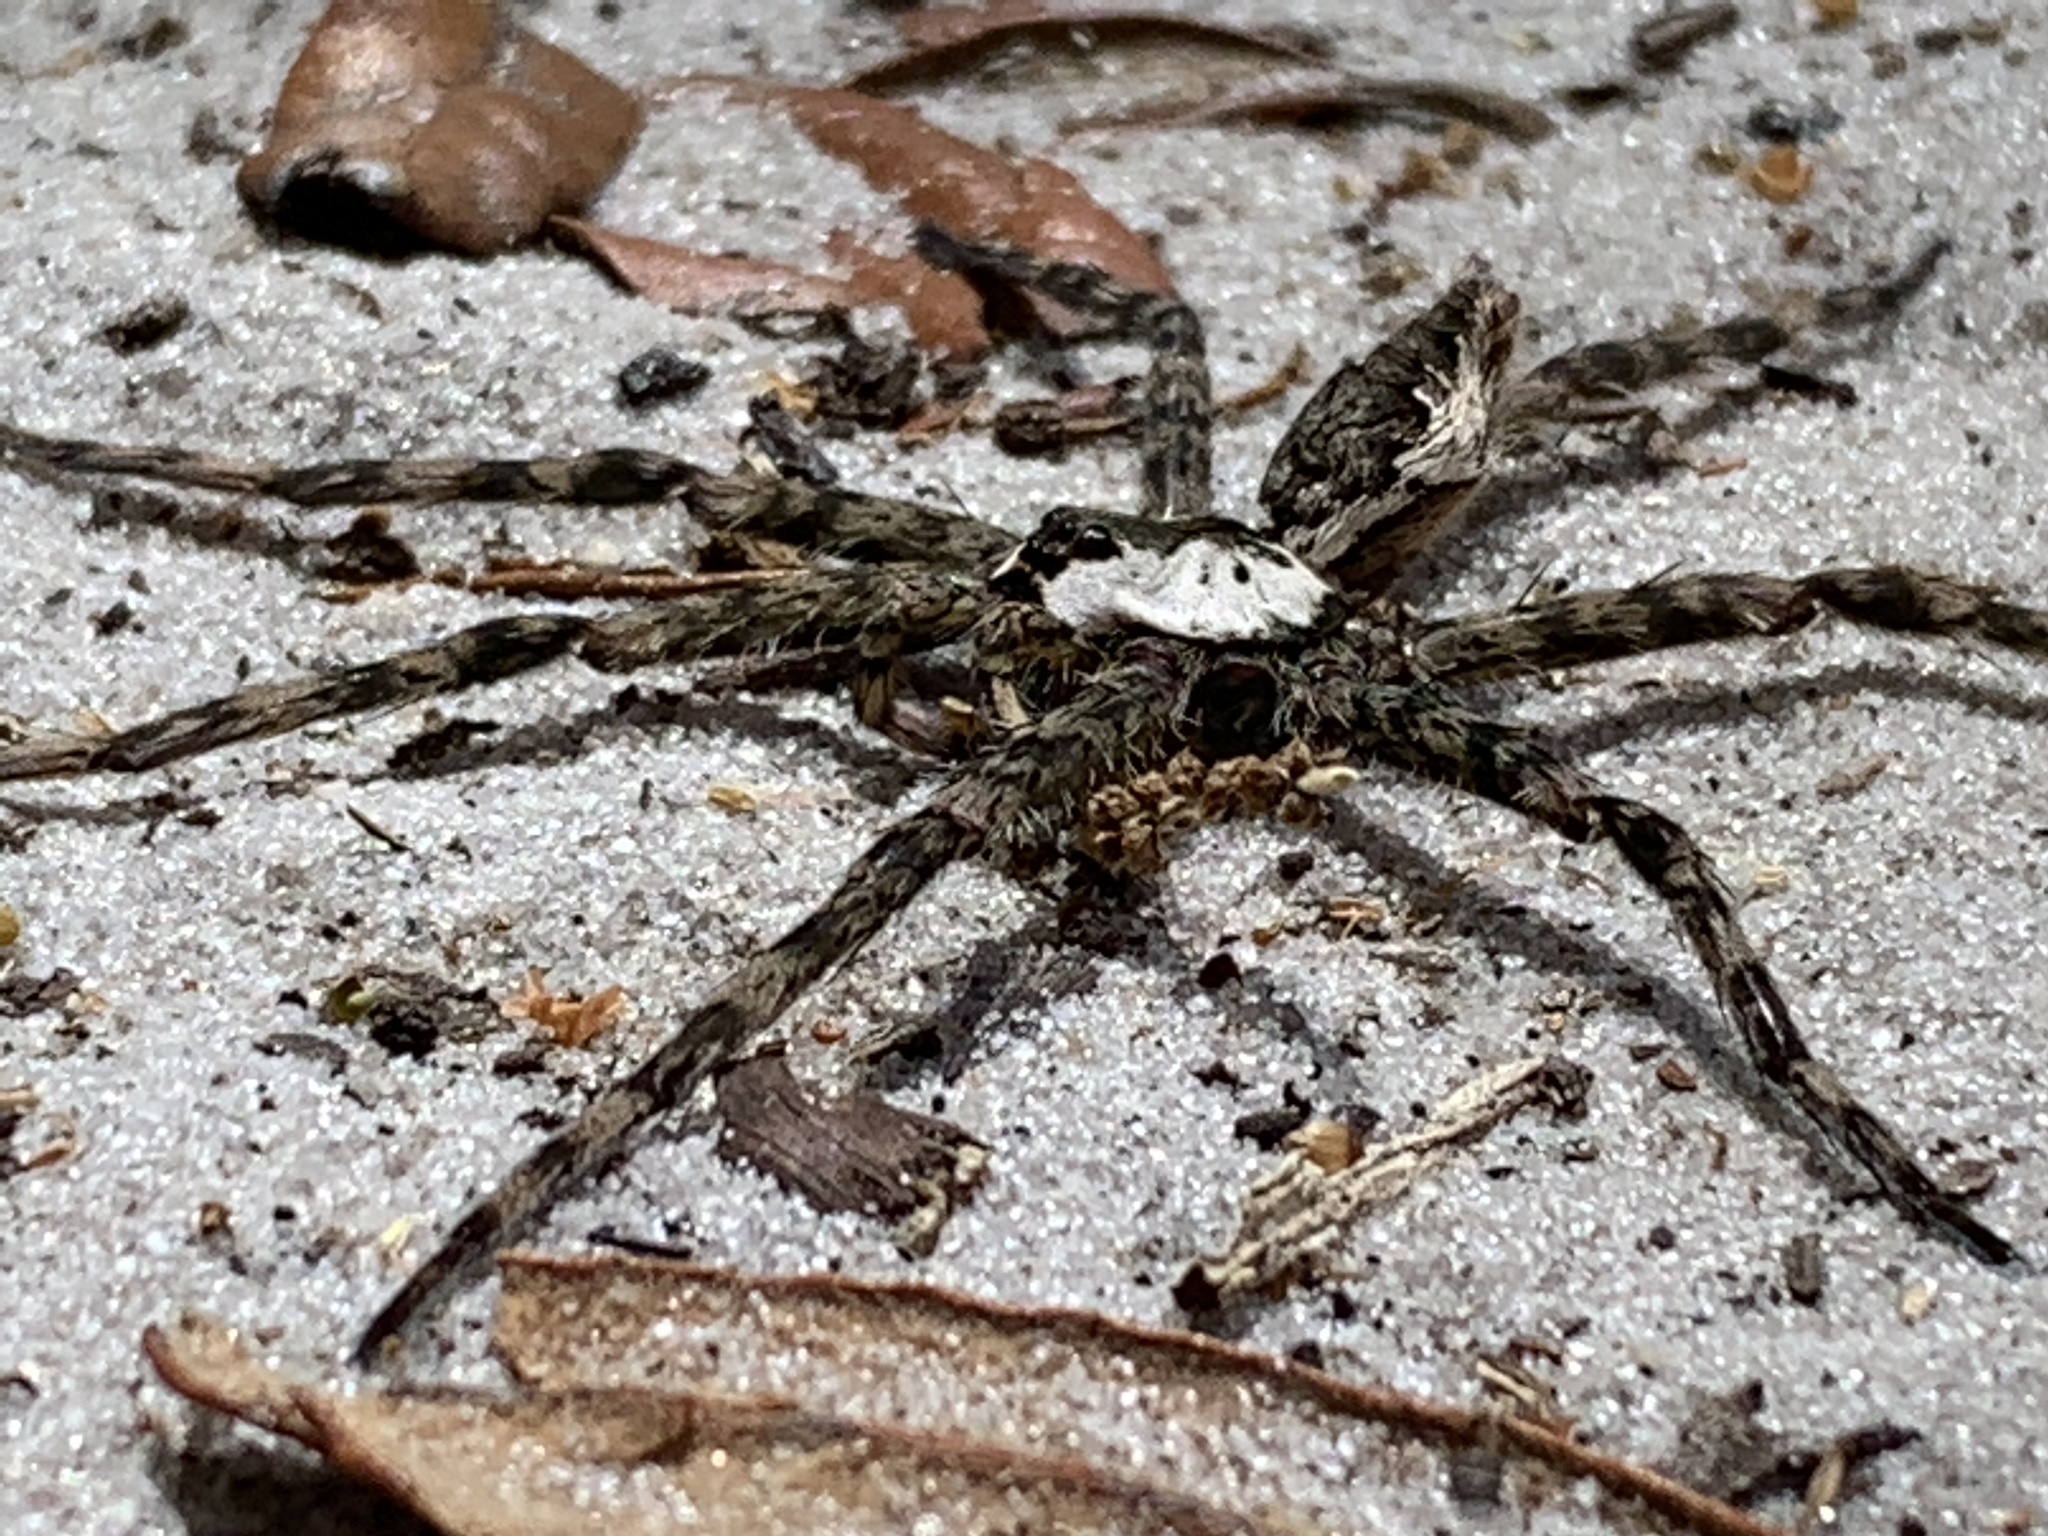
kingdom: Animalia
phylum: Arthropoda
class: Arachnida
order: Araneae
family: Pisauridae
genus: Dolomedes
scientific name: Dolomedes albineus
